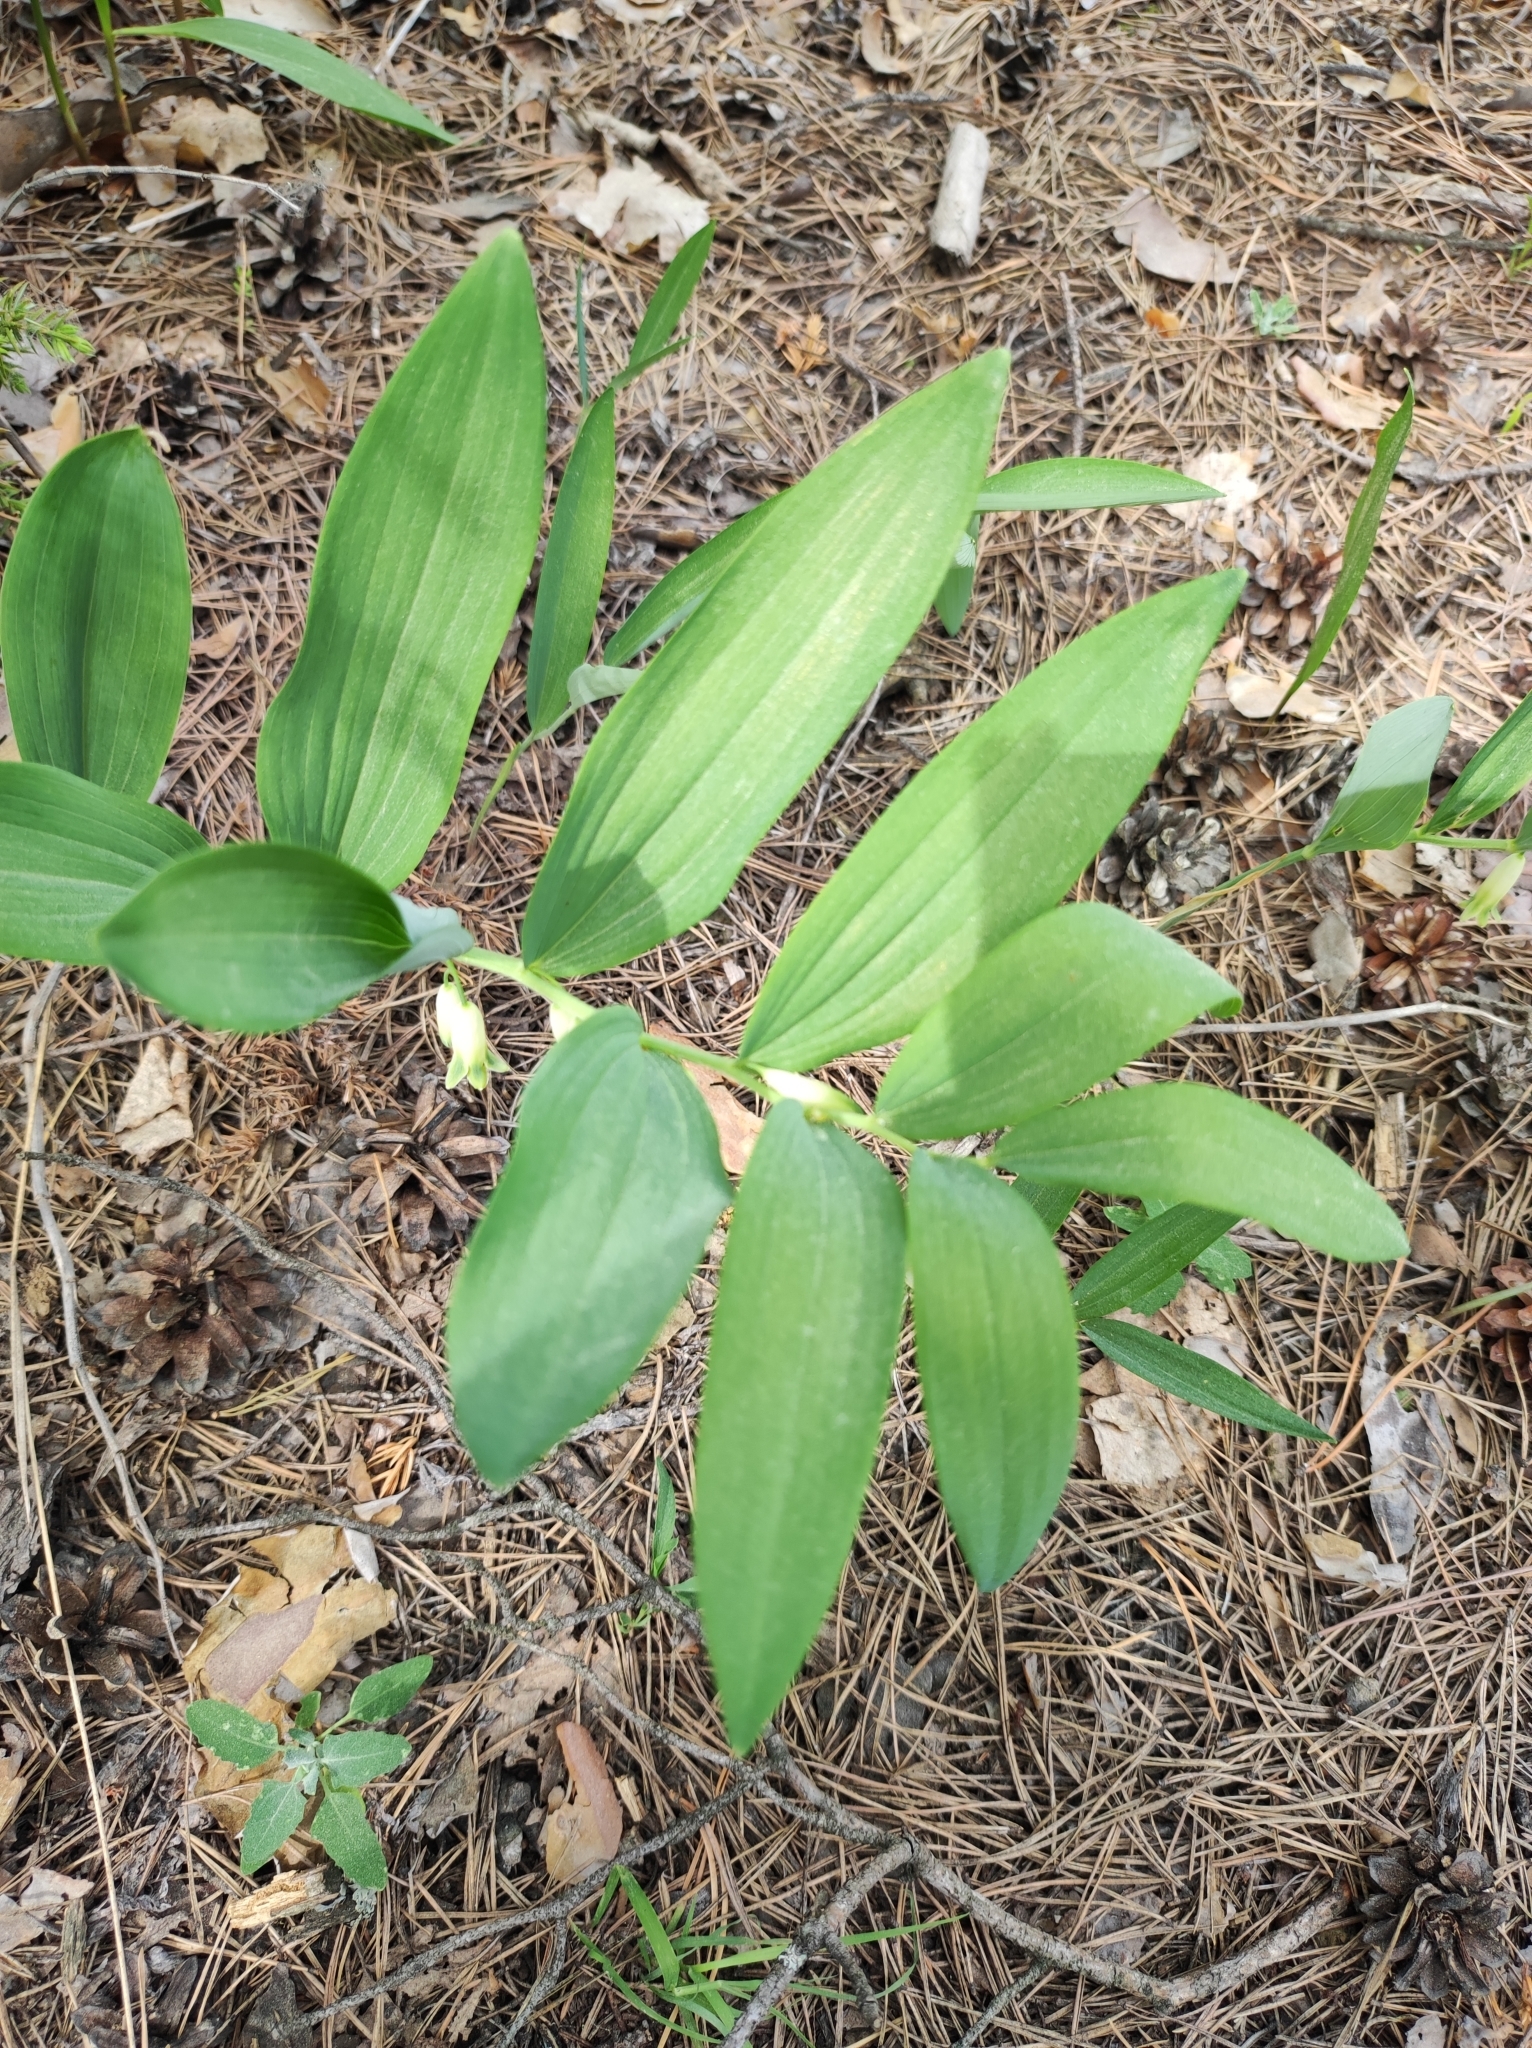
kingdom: Plantae
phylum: Tracheophyta
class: Liliopsida
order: Asparagales
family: Asparagaceae
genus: Polygonatum
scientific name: Polygonatum odoratum
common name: Angular solomon's-seal
